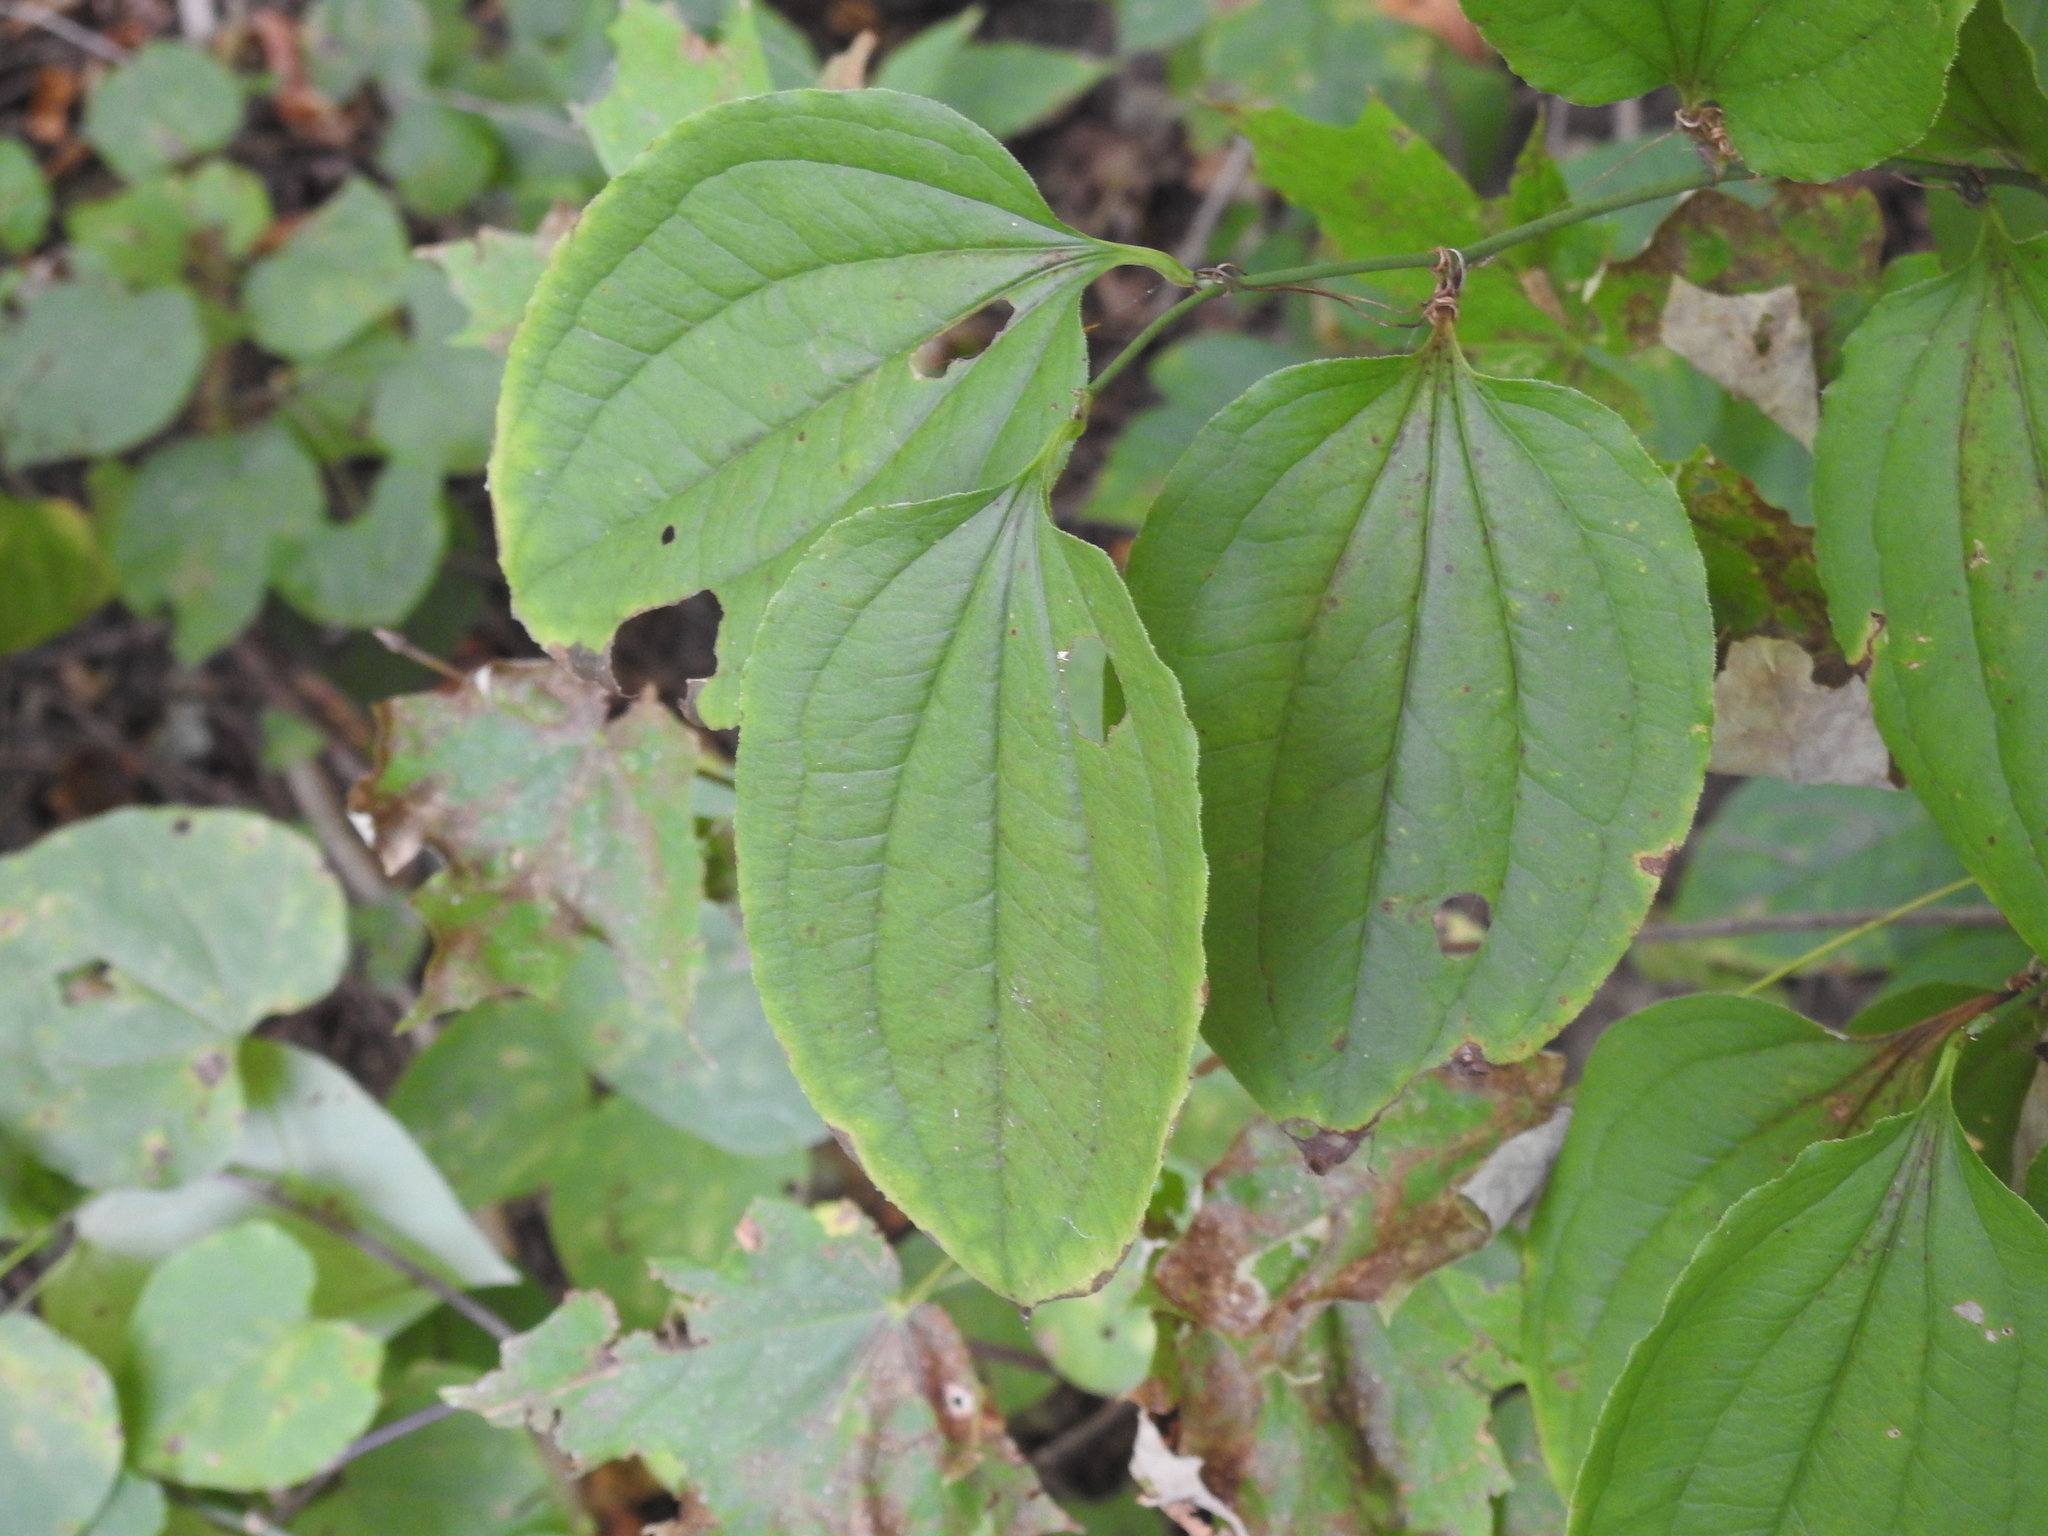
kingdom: Plantae
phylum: Tracheophyta
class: Liliopsida
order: Liliales
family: Smilacaceae
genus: Smilax
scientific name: Smilax tamnoides
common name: Hellfetter
